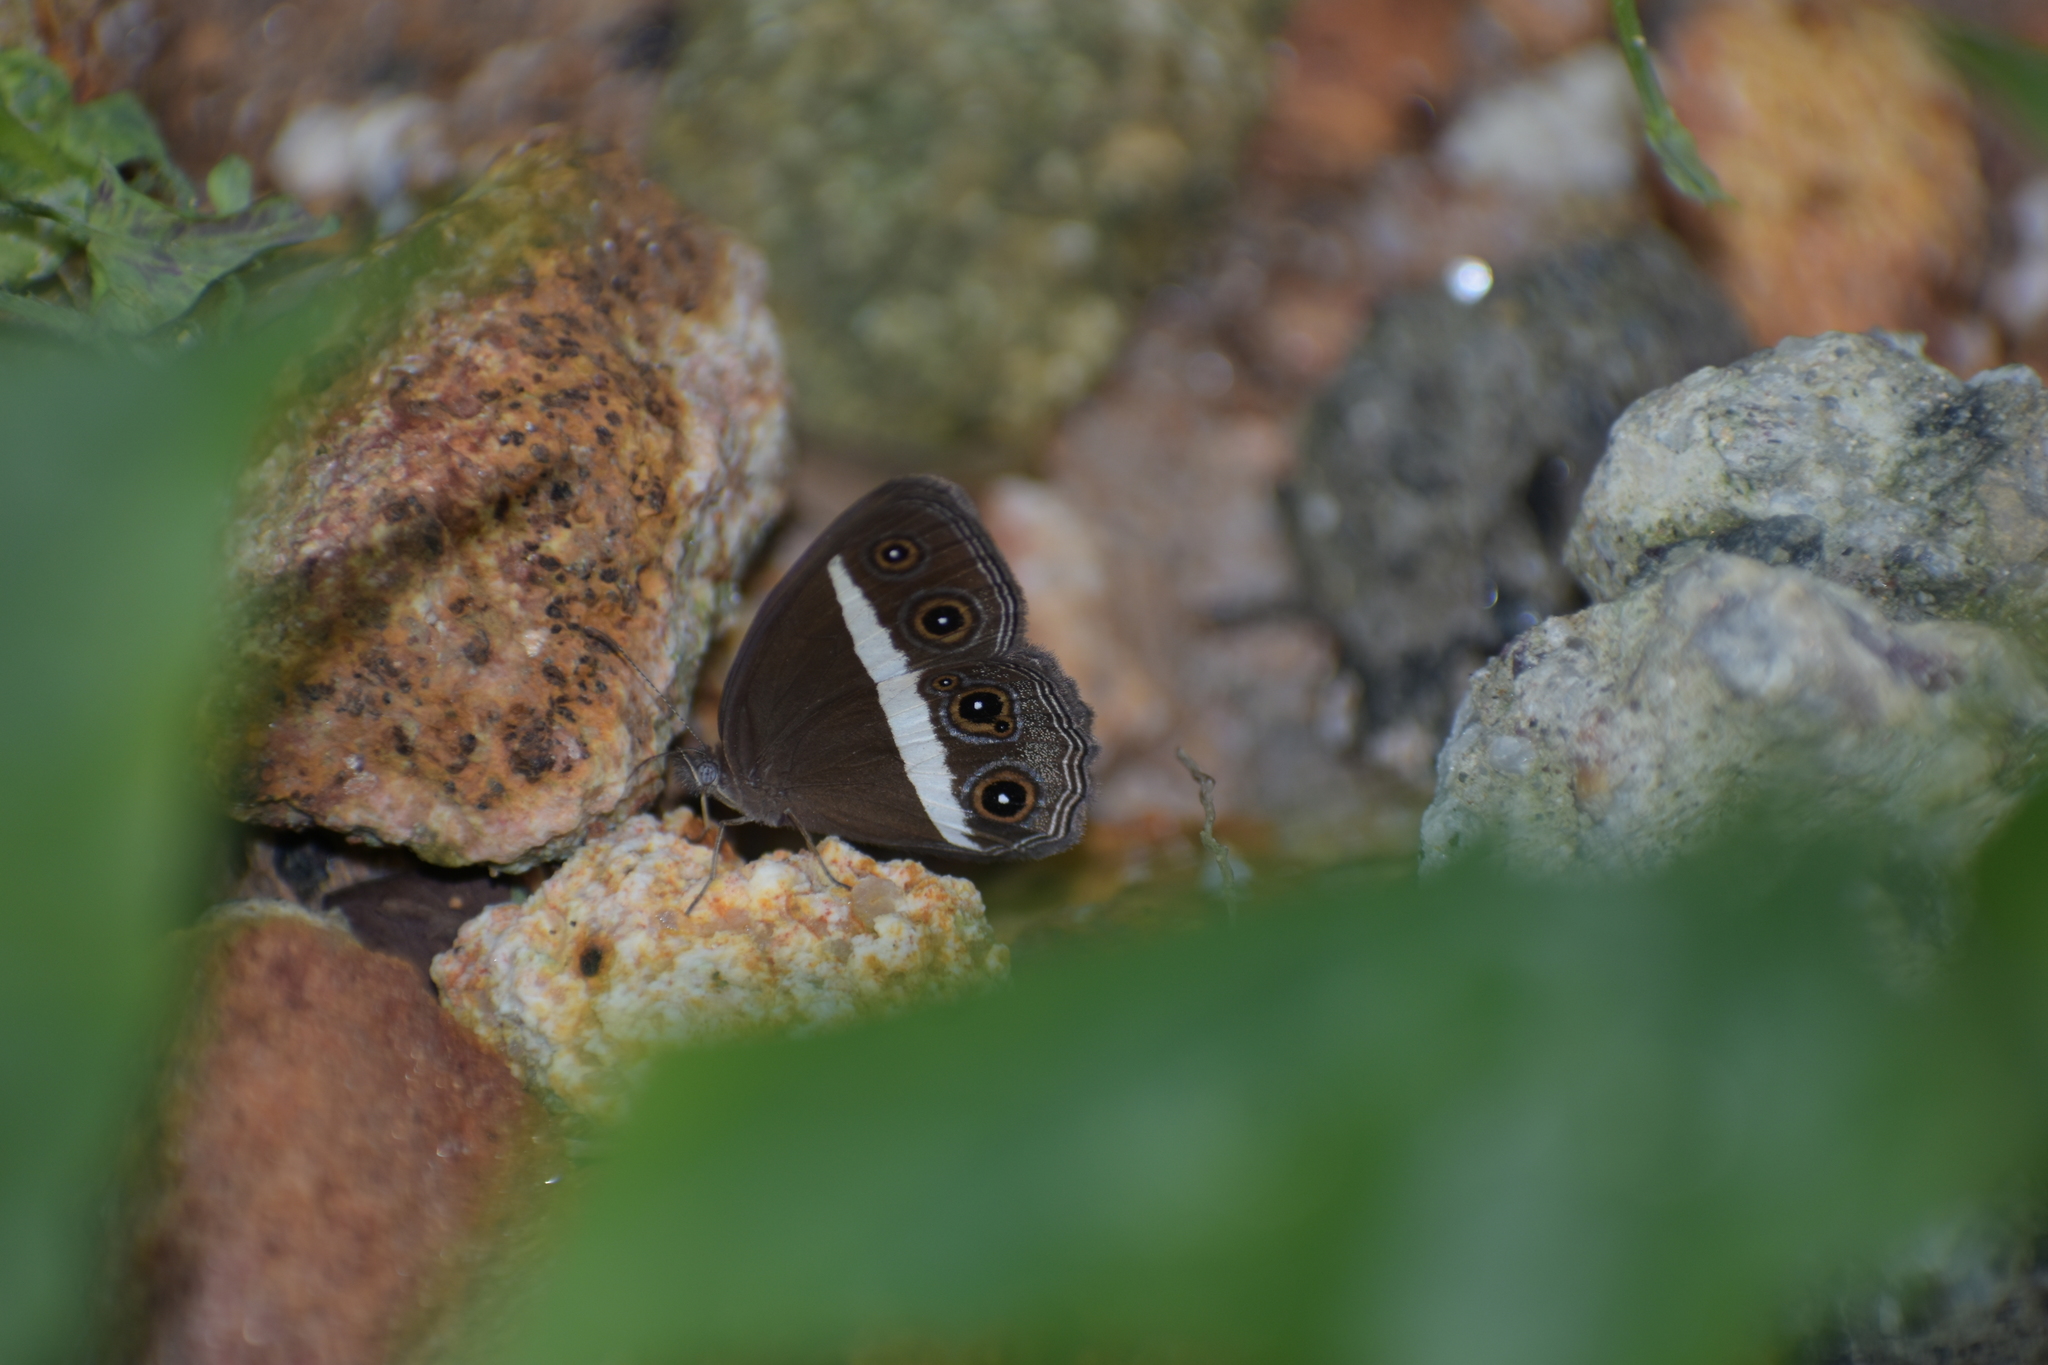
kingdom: Animalia
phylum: Arthropoda
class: Insecta
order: Lepidoptera
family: Nymphalidae
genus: Orsotriaena
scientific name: Orsotriaena medus
